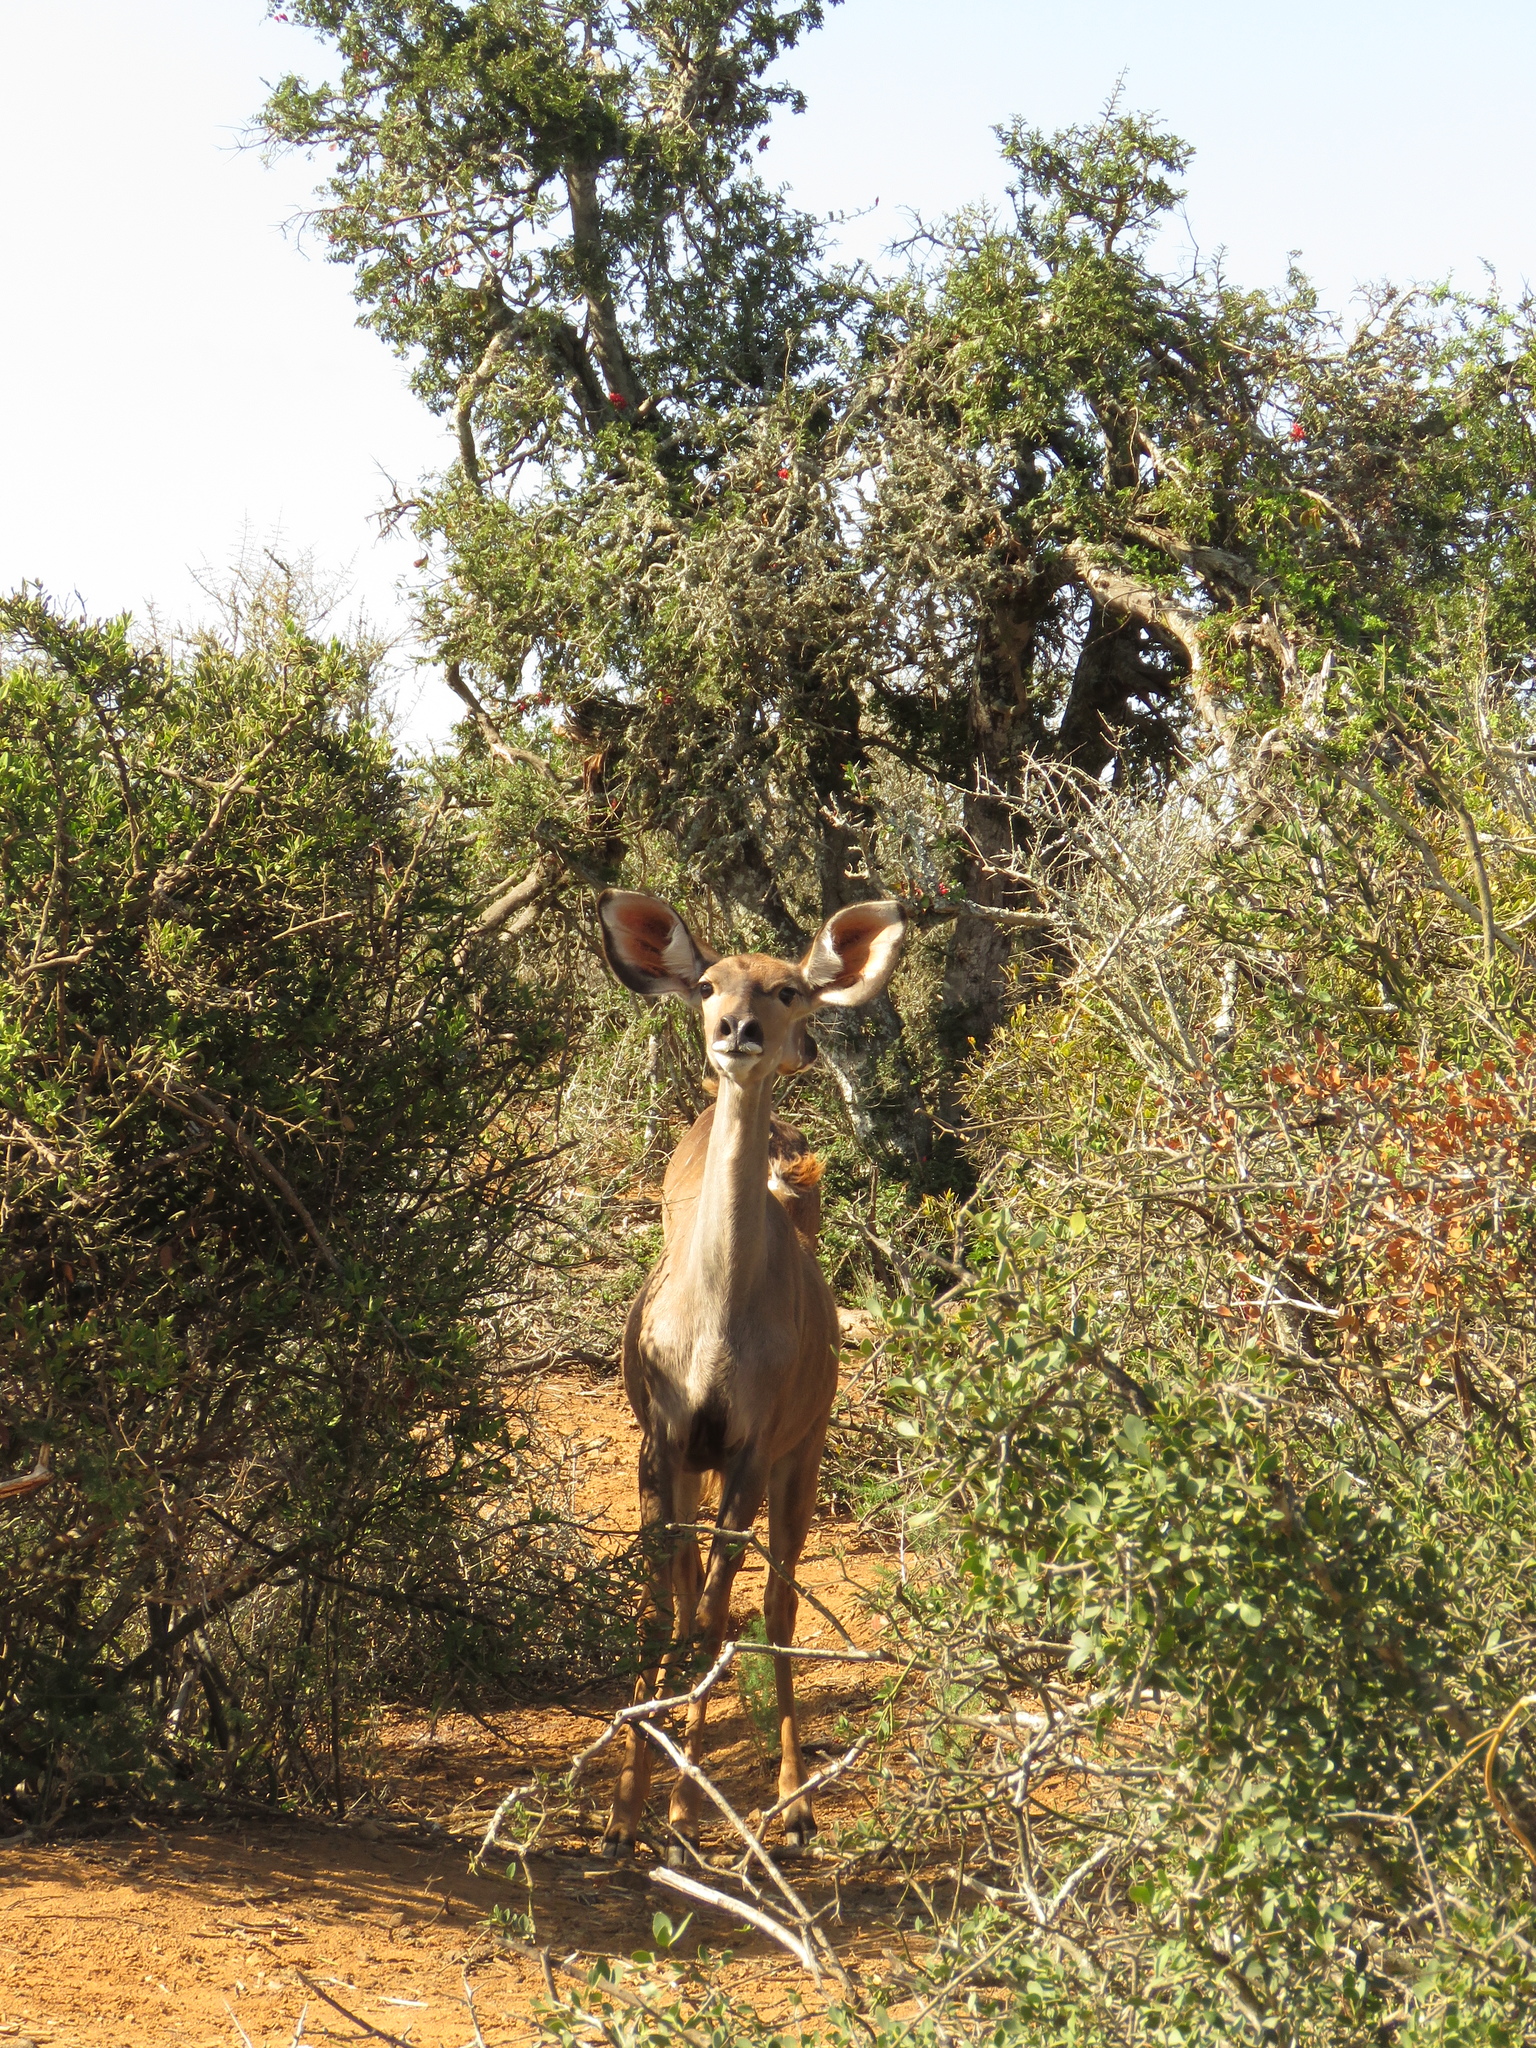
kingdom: Animalia
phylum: Chordata
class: Mammalia
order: Artiodactyla
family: Bovidae
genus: Tragelaphus
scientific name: Tragelaphus strepsiceros
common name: Greater kudu
